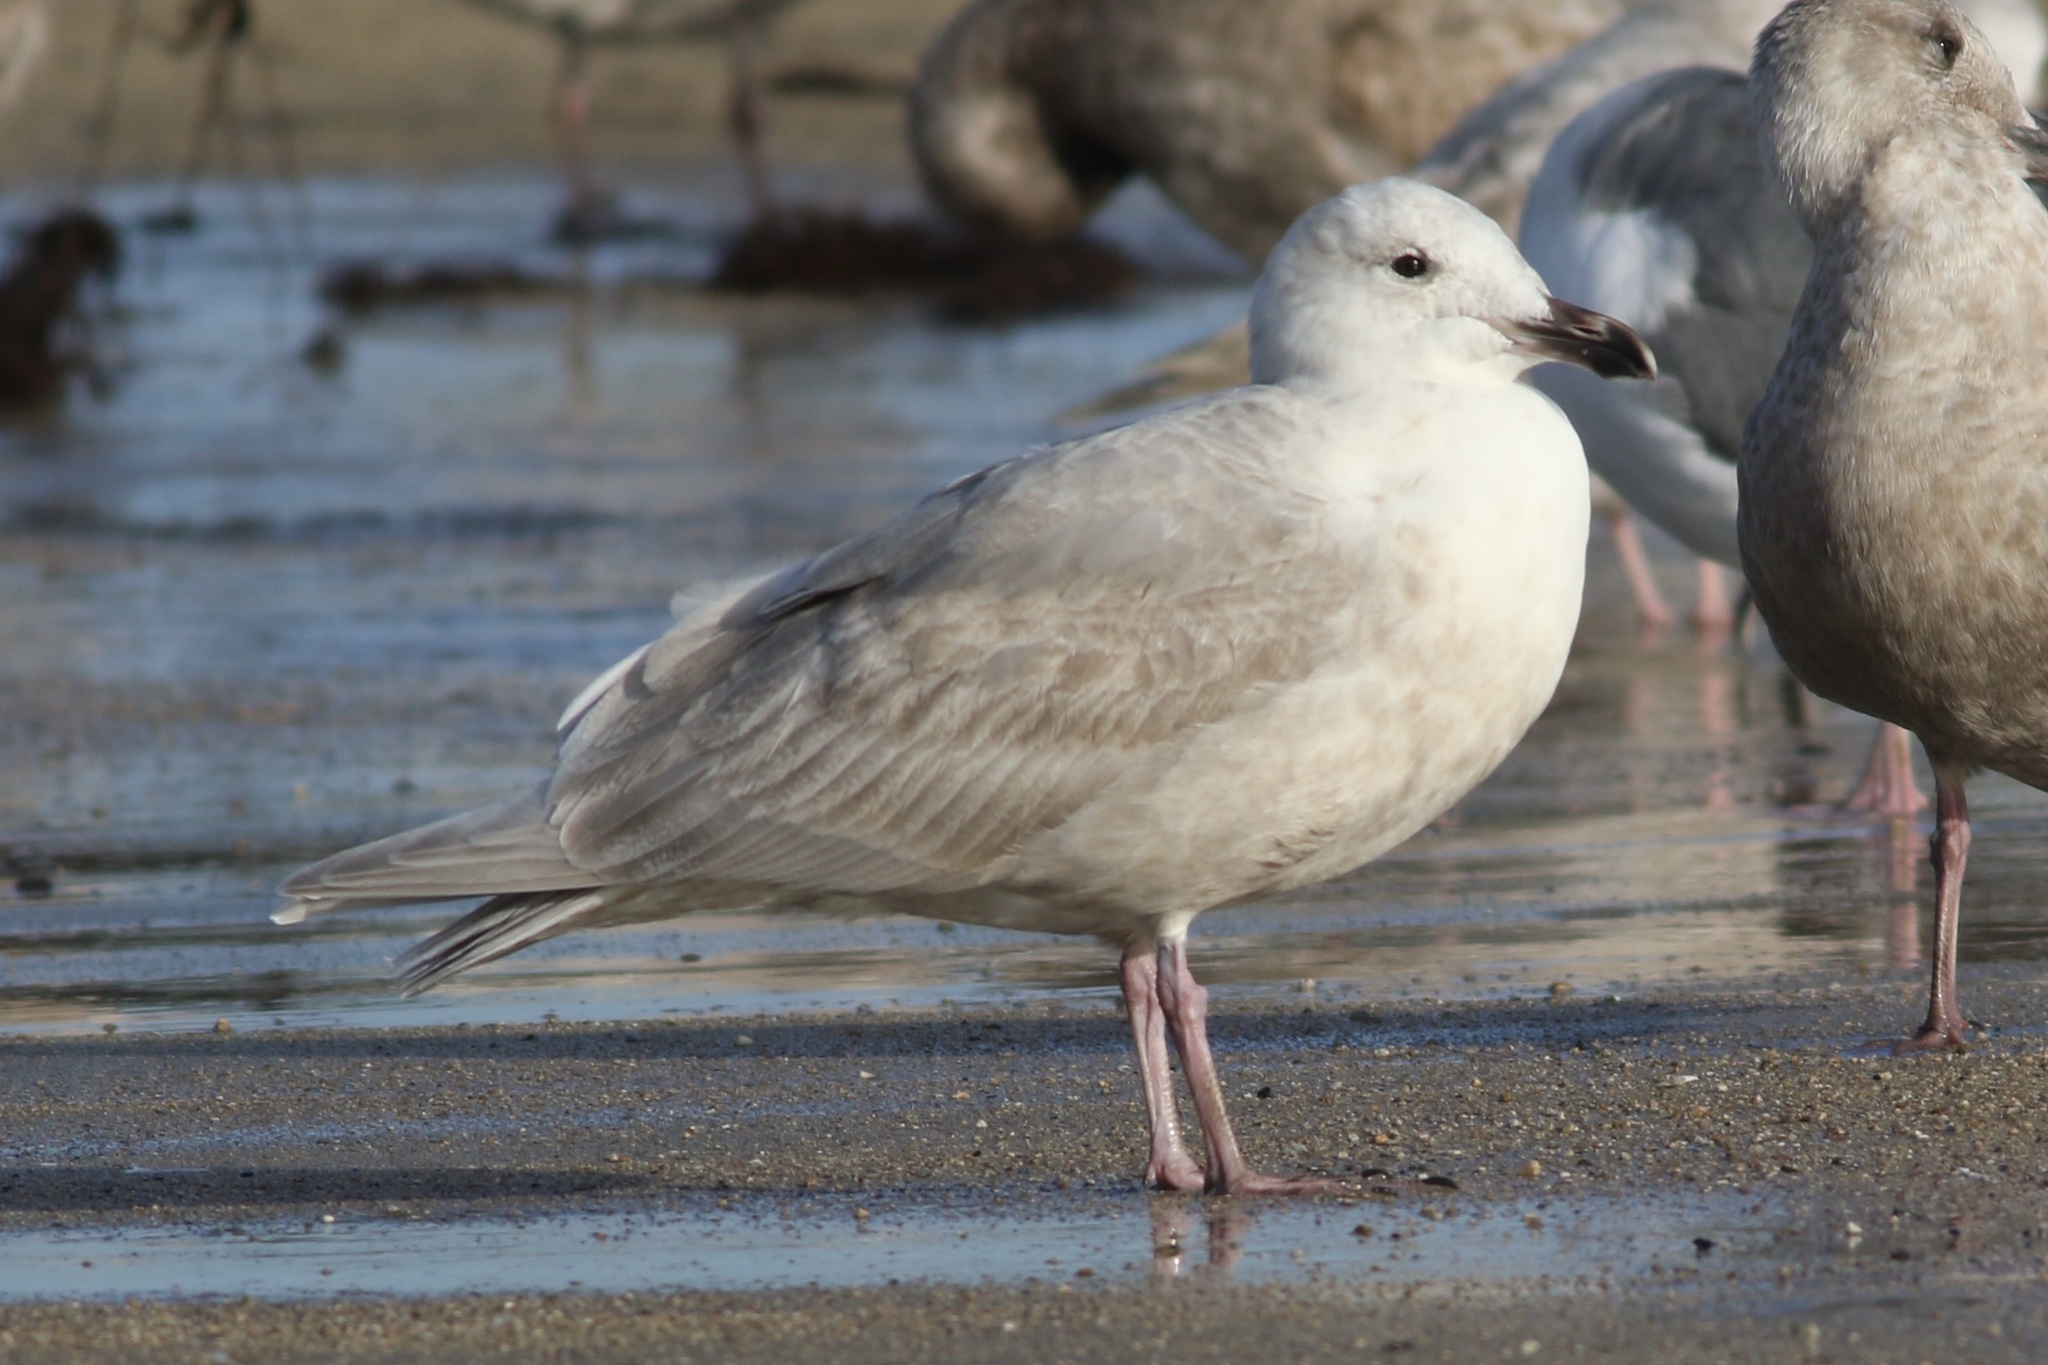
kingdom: Animalia
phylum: Chordata
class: Aves
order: Charadriiformes
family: Laridae
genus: Larus
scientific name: Larus glaucescens
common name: Glaucous-winged gull
